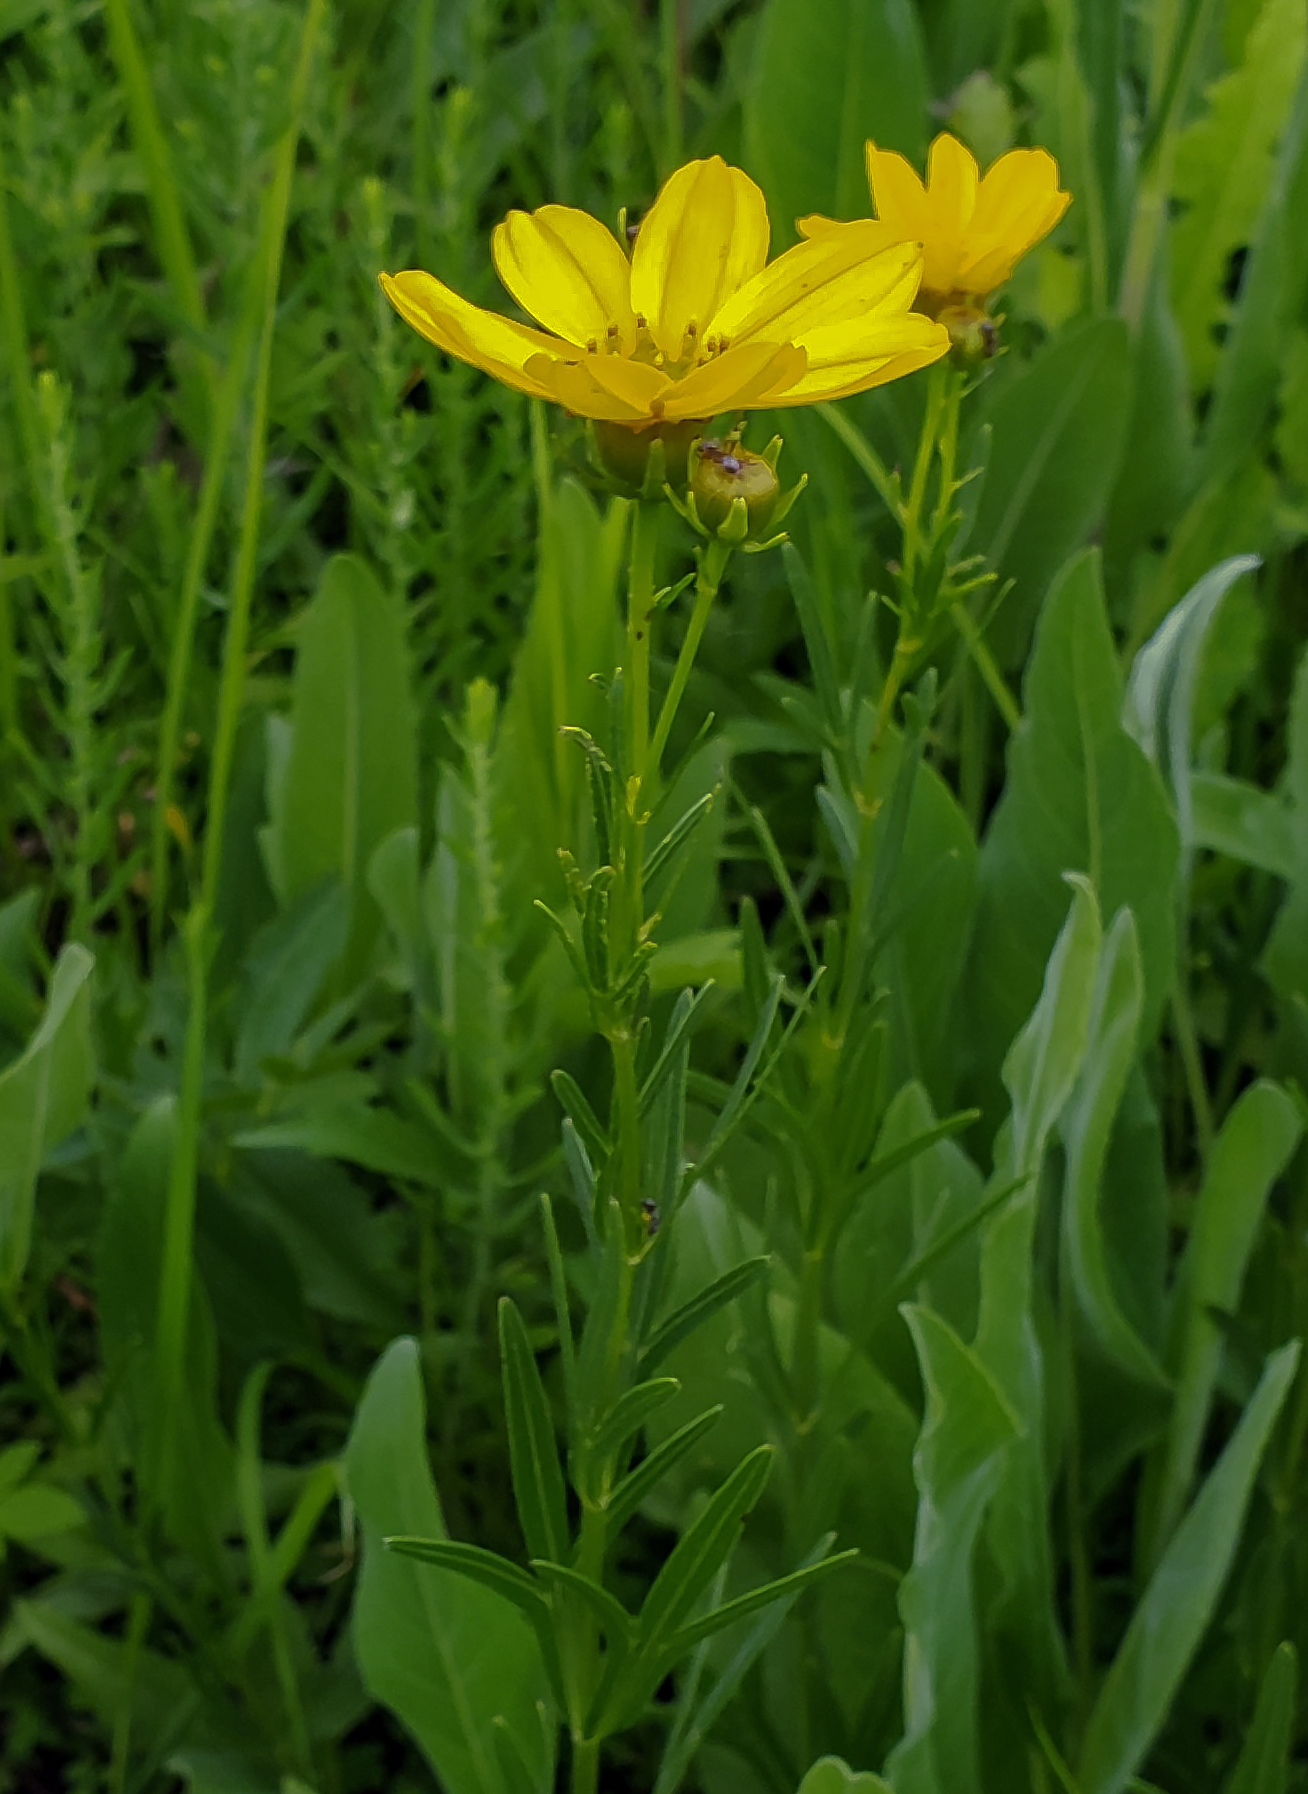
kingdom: Plantae
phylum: Tracheophyta
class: Magnoliopsida
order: Asterales
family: Asteraceae
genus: Coreopsis
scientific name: Coreopsis palmata
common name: Prairie coreopsis
